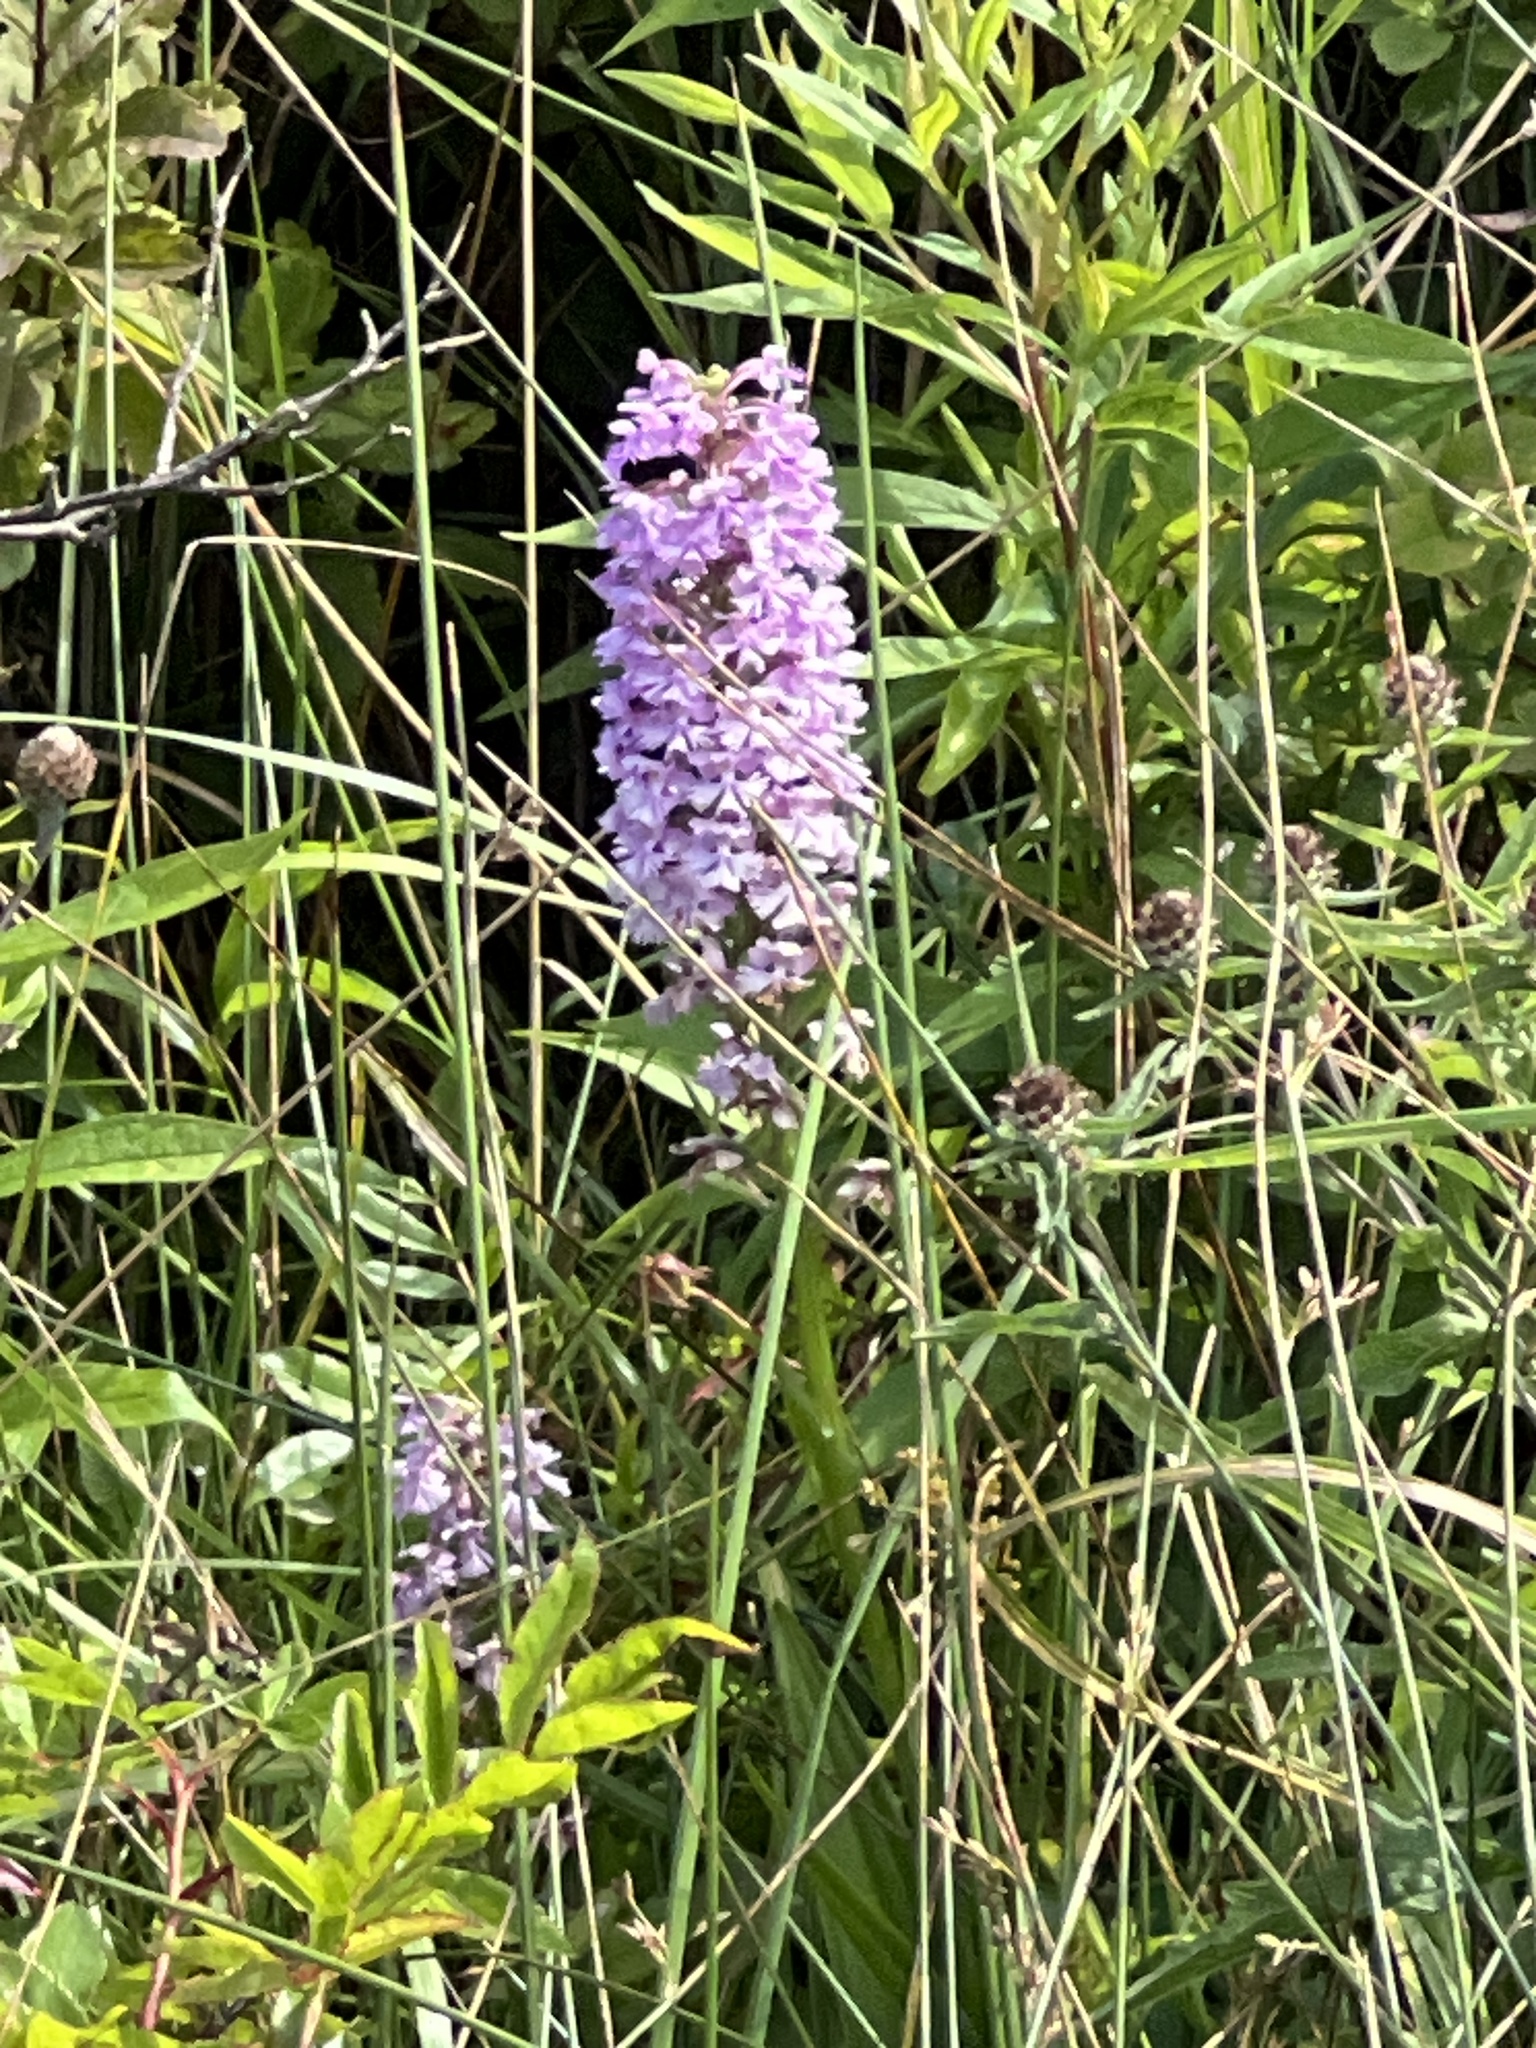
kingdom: Plantae
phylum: Tracheophyta
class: Liliopsida
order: Asparagales
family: Orchidaceae
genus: Platanthera
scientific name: Platanthera psycodes
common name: Lesser purple fringed orchid
